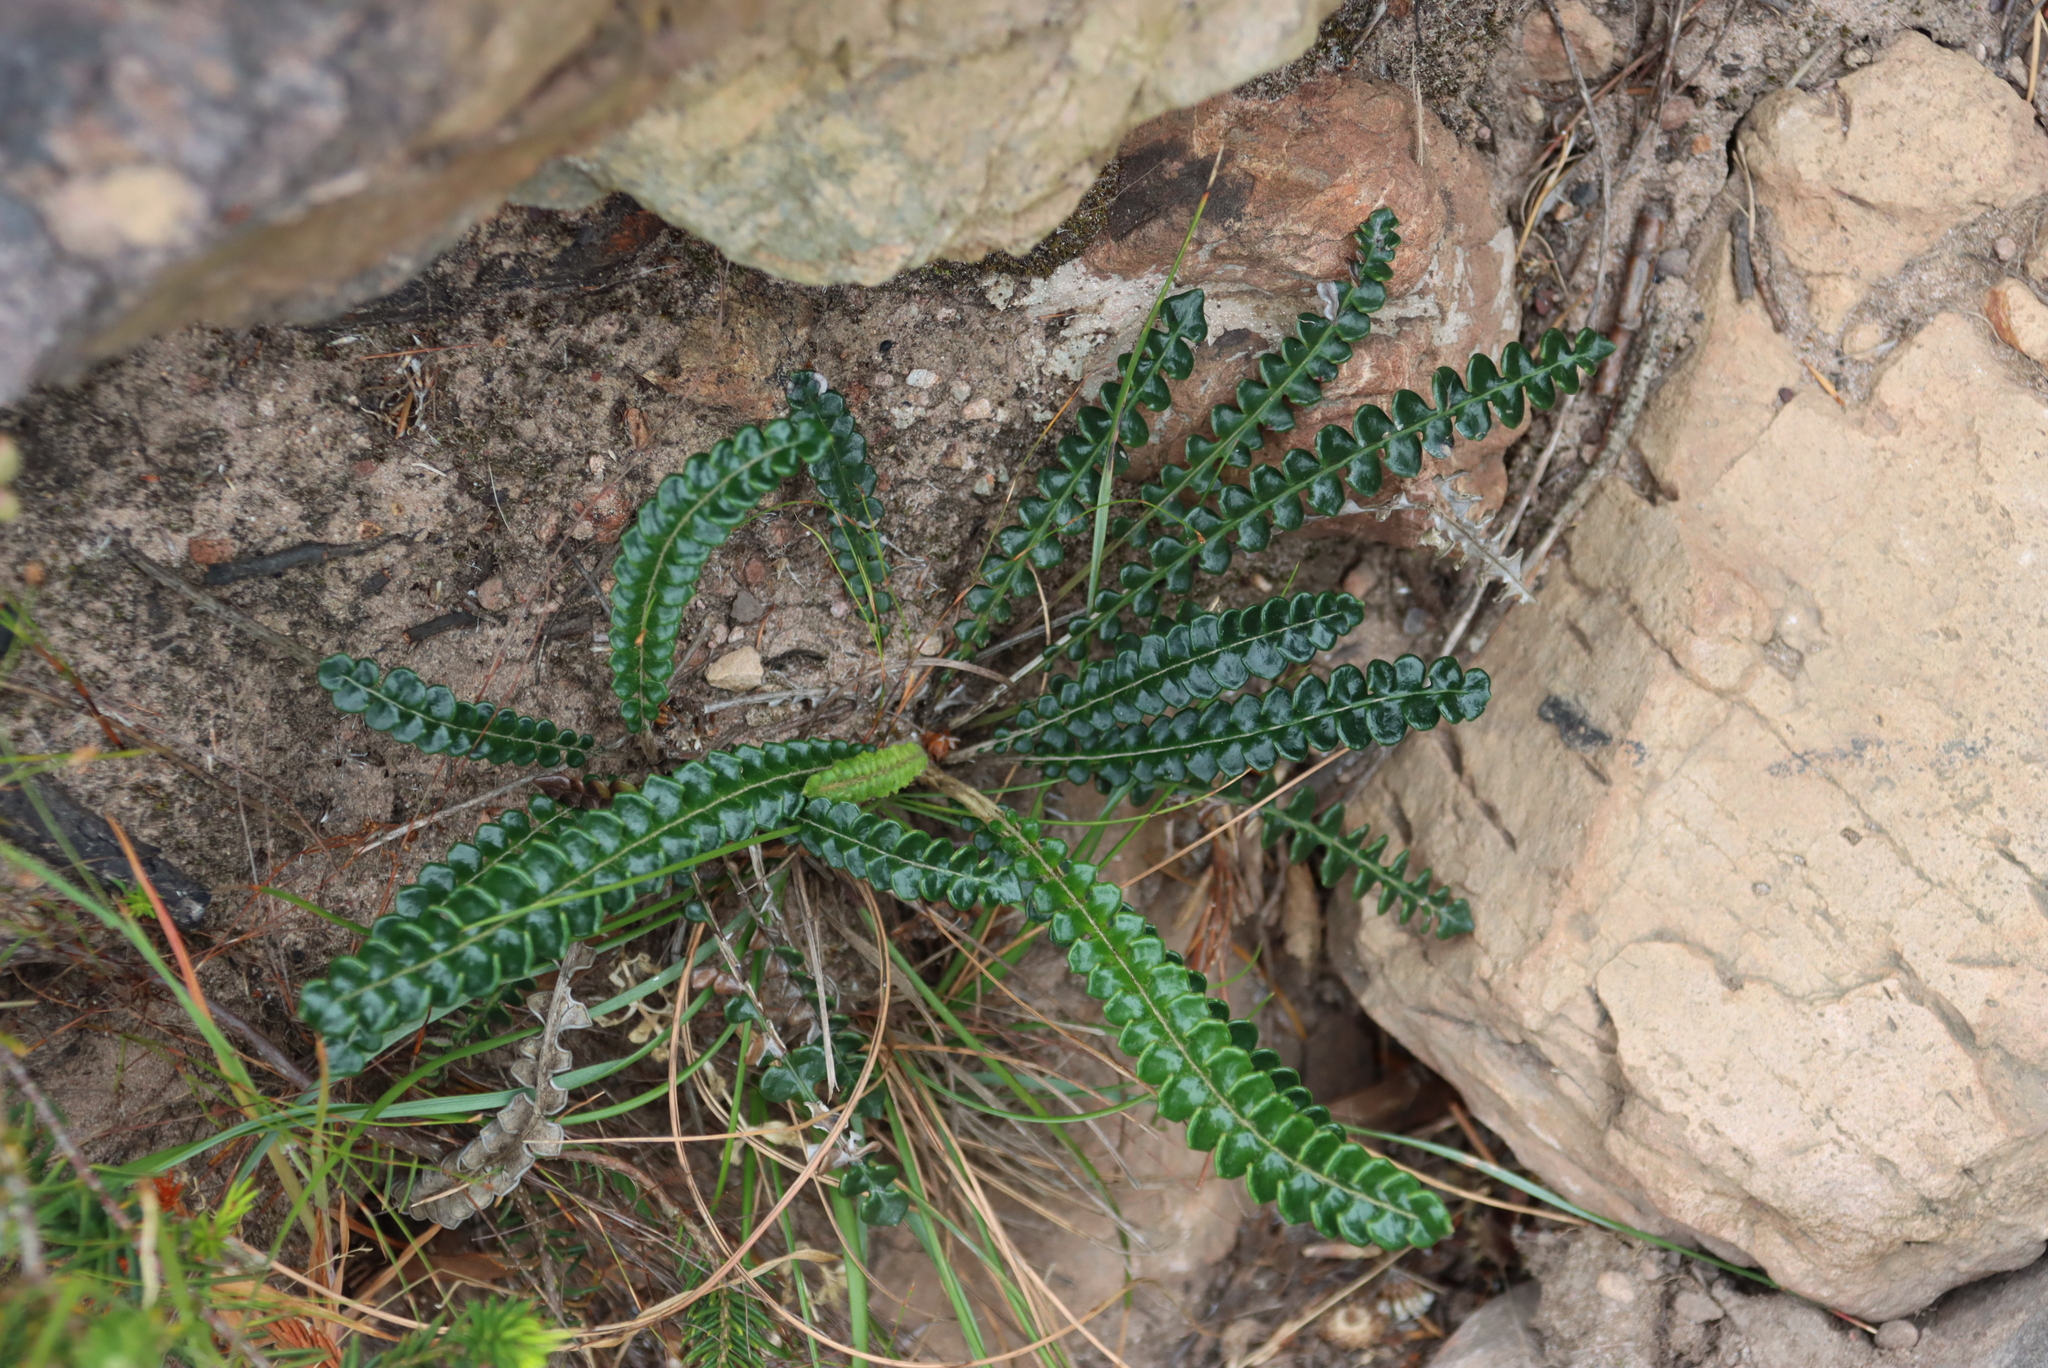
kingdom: Plantae
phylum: Tracheophyta
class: Magnoliopsida
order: Asterales
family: Asteraceae
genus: Gerbera
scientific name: Gerbera linnaei
